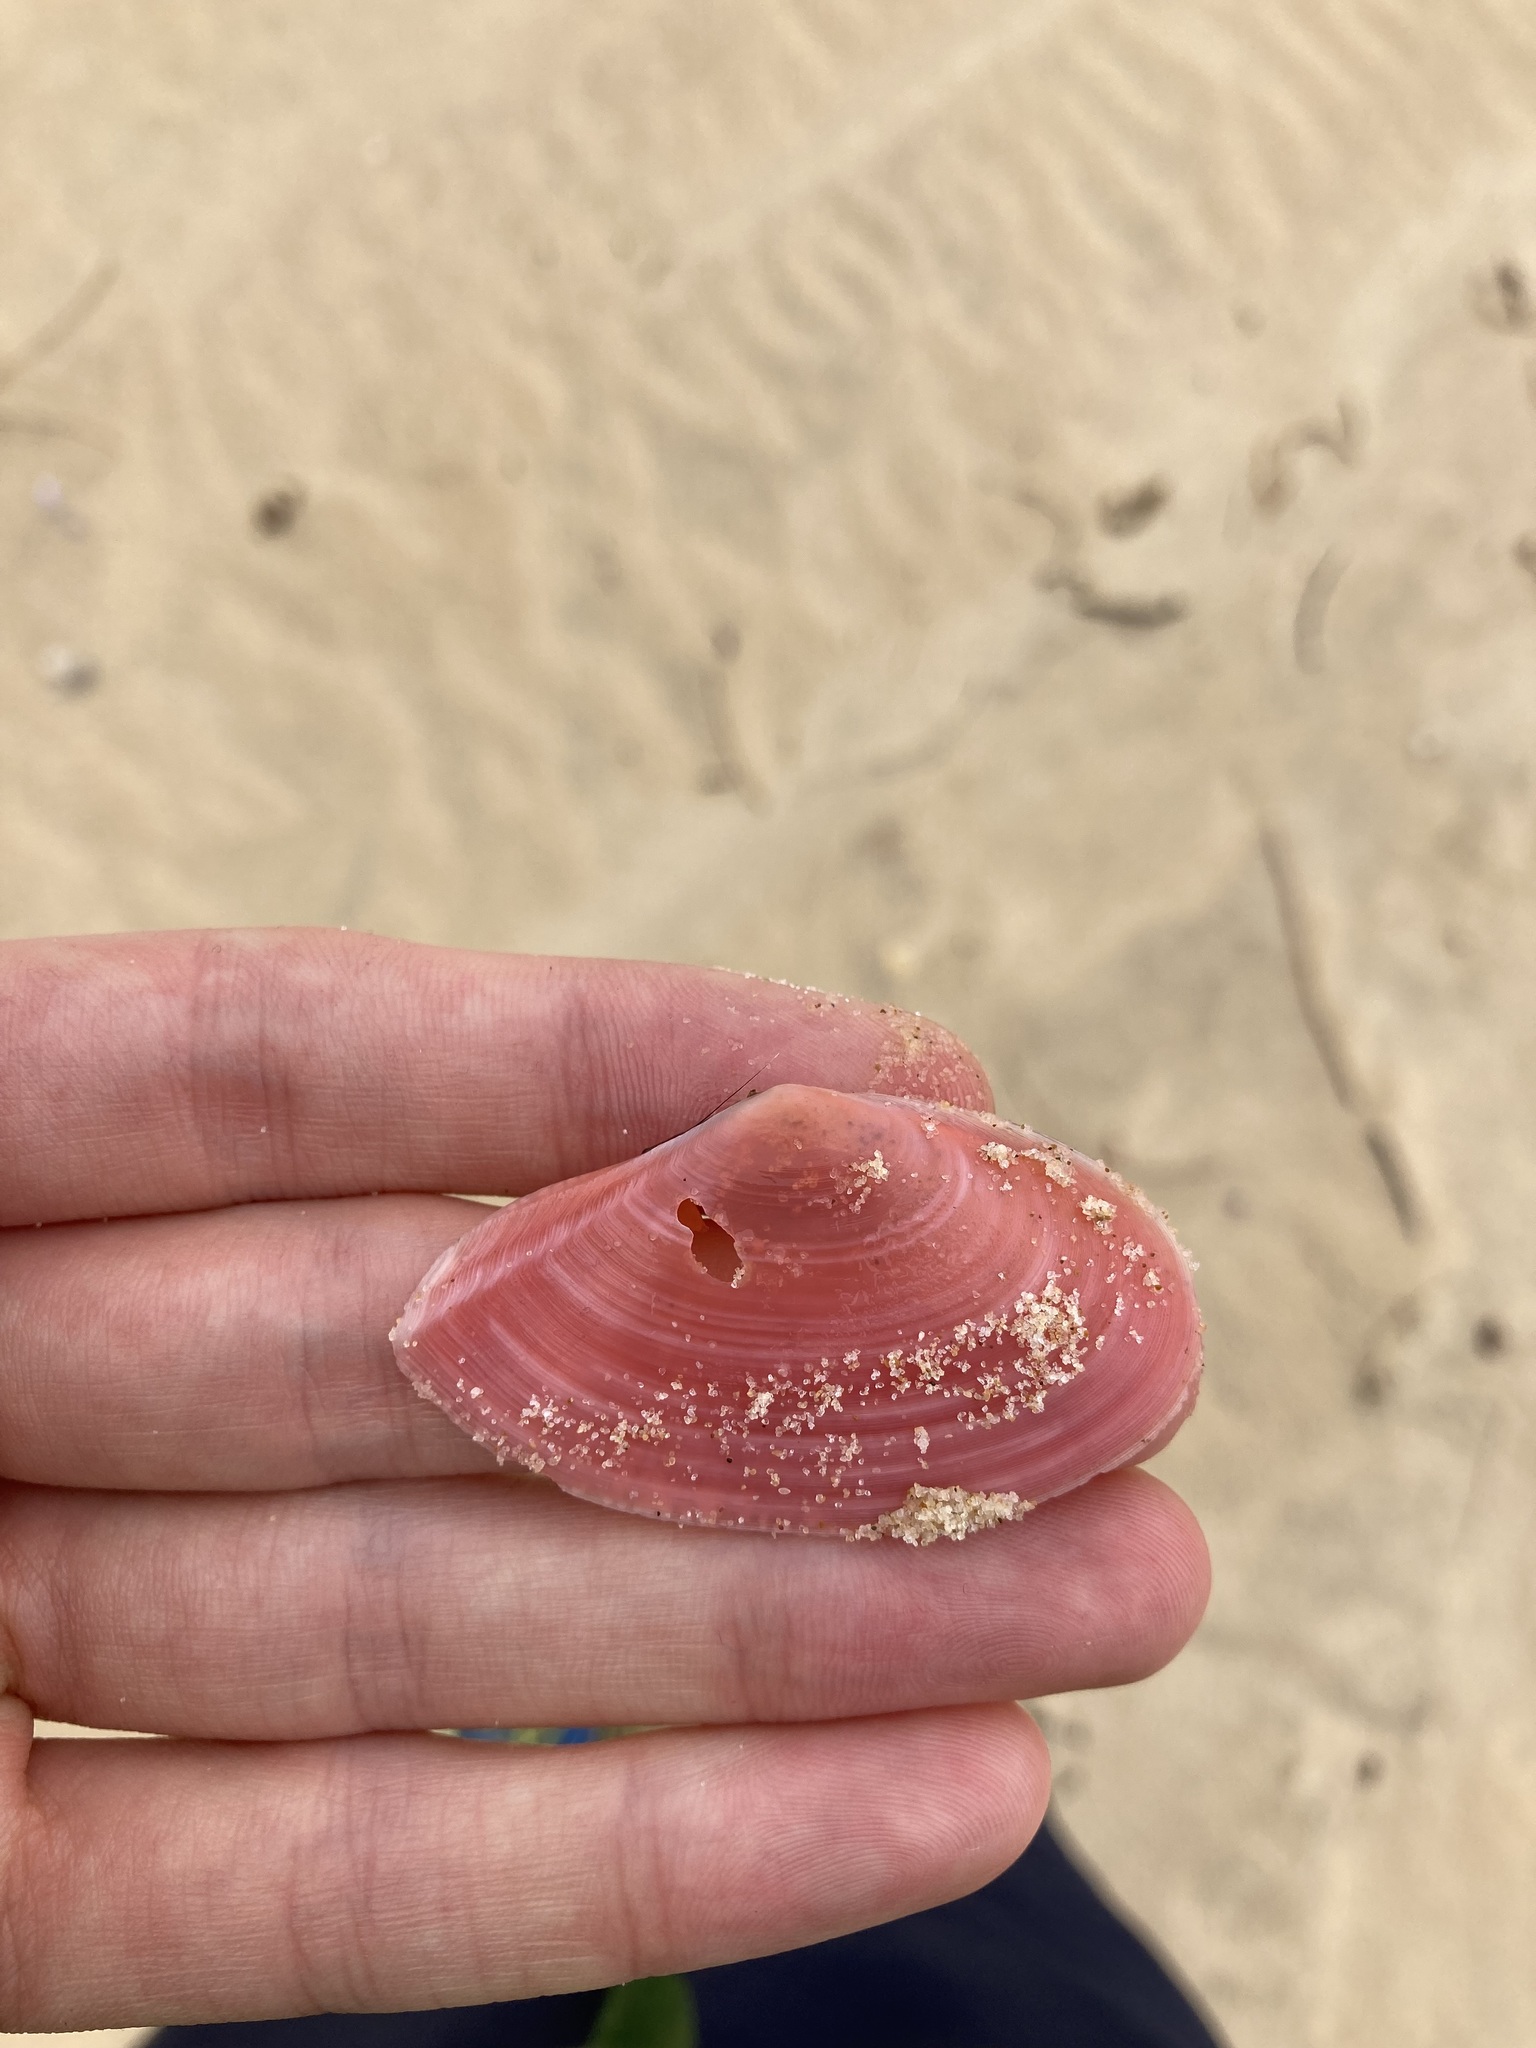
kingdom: Animalia
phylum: Mollusca
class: Bivalvia
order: Cardiida
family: Tellinidae
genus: Tellinota
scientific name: Tellinota albinella
